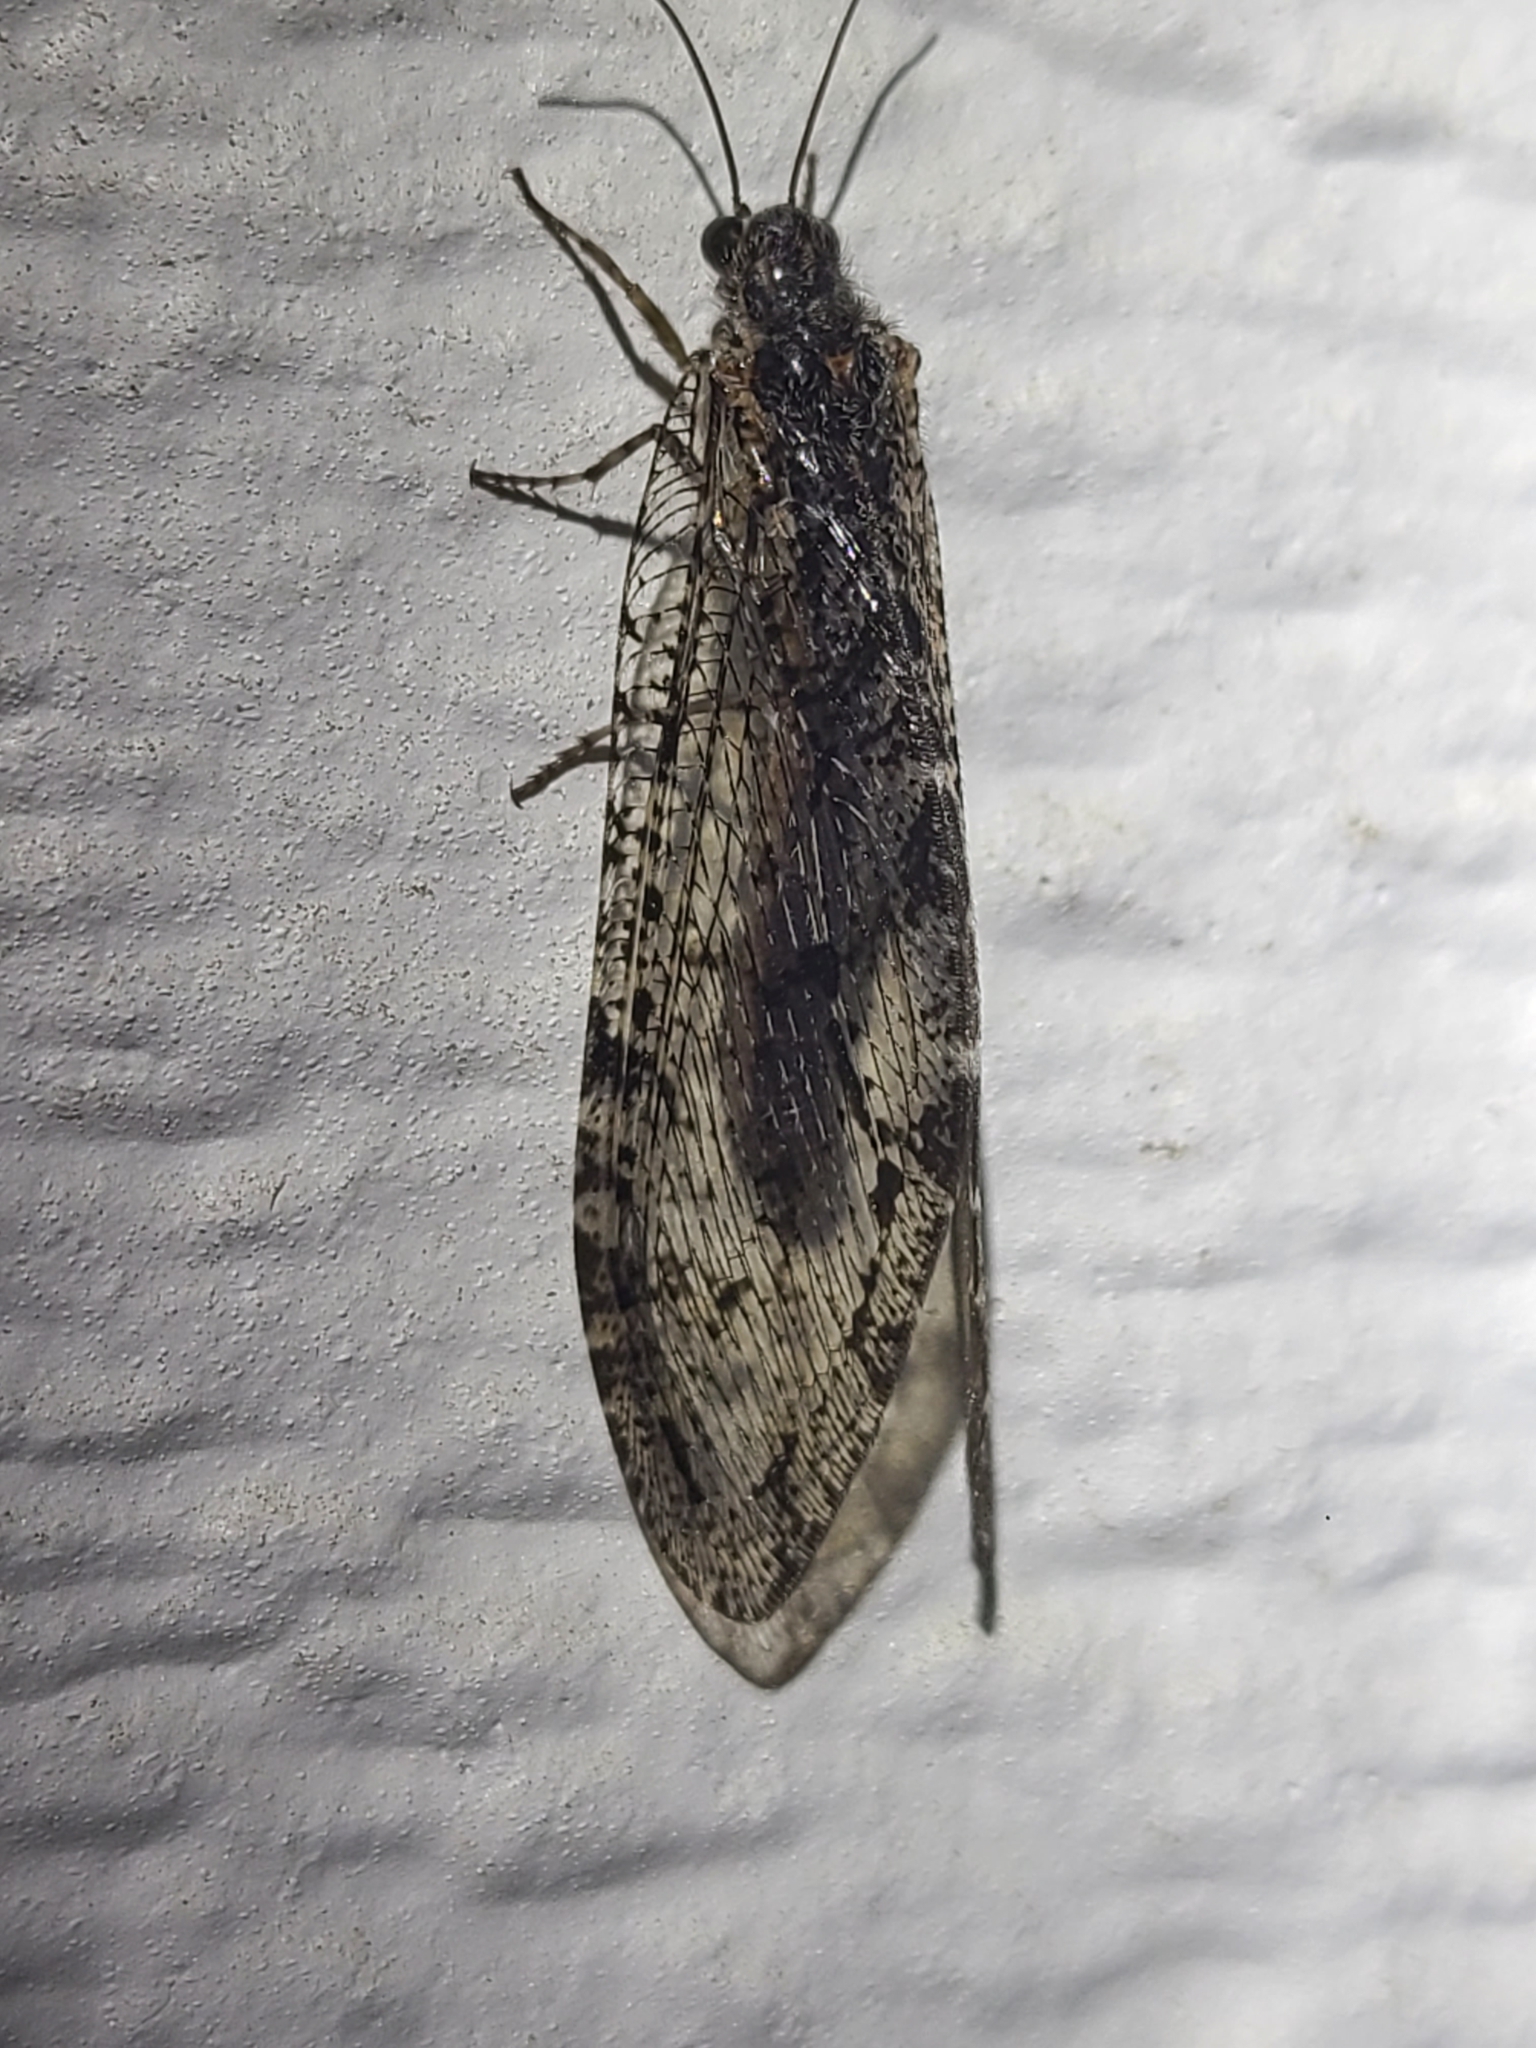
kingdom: Animalia
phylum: Arthropoda
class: Insecta
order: Neuroptera
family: Ithonidae
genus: Polystoechotes
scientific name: Polystoechotes punctata
